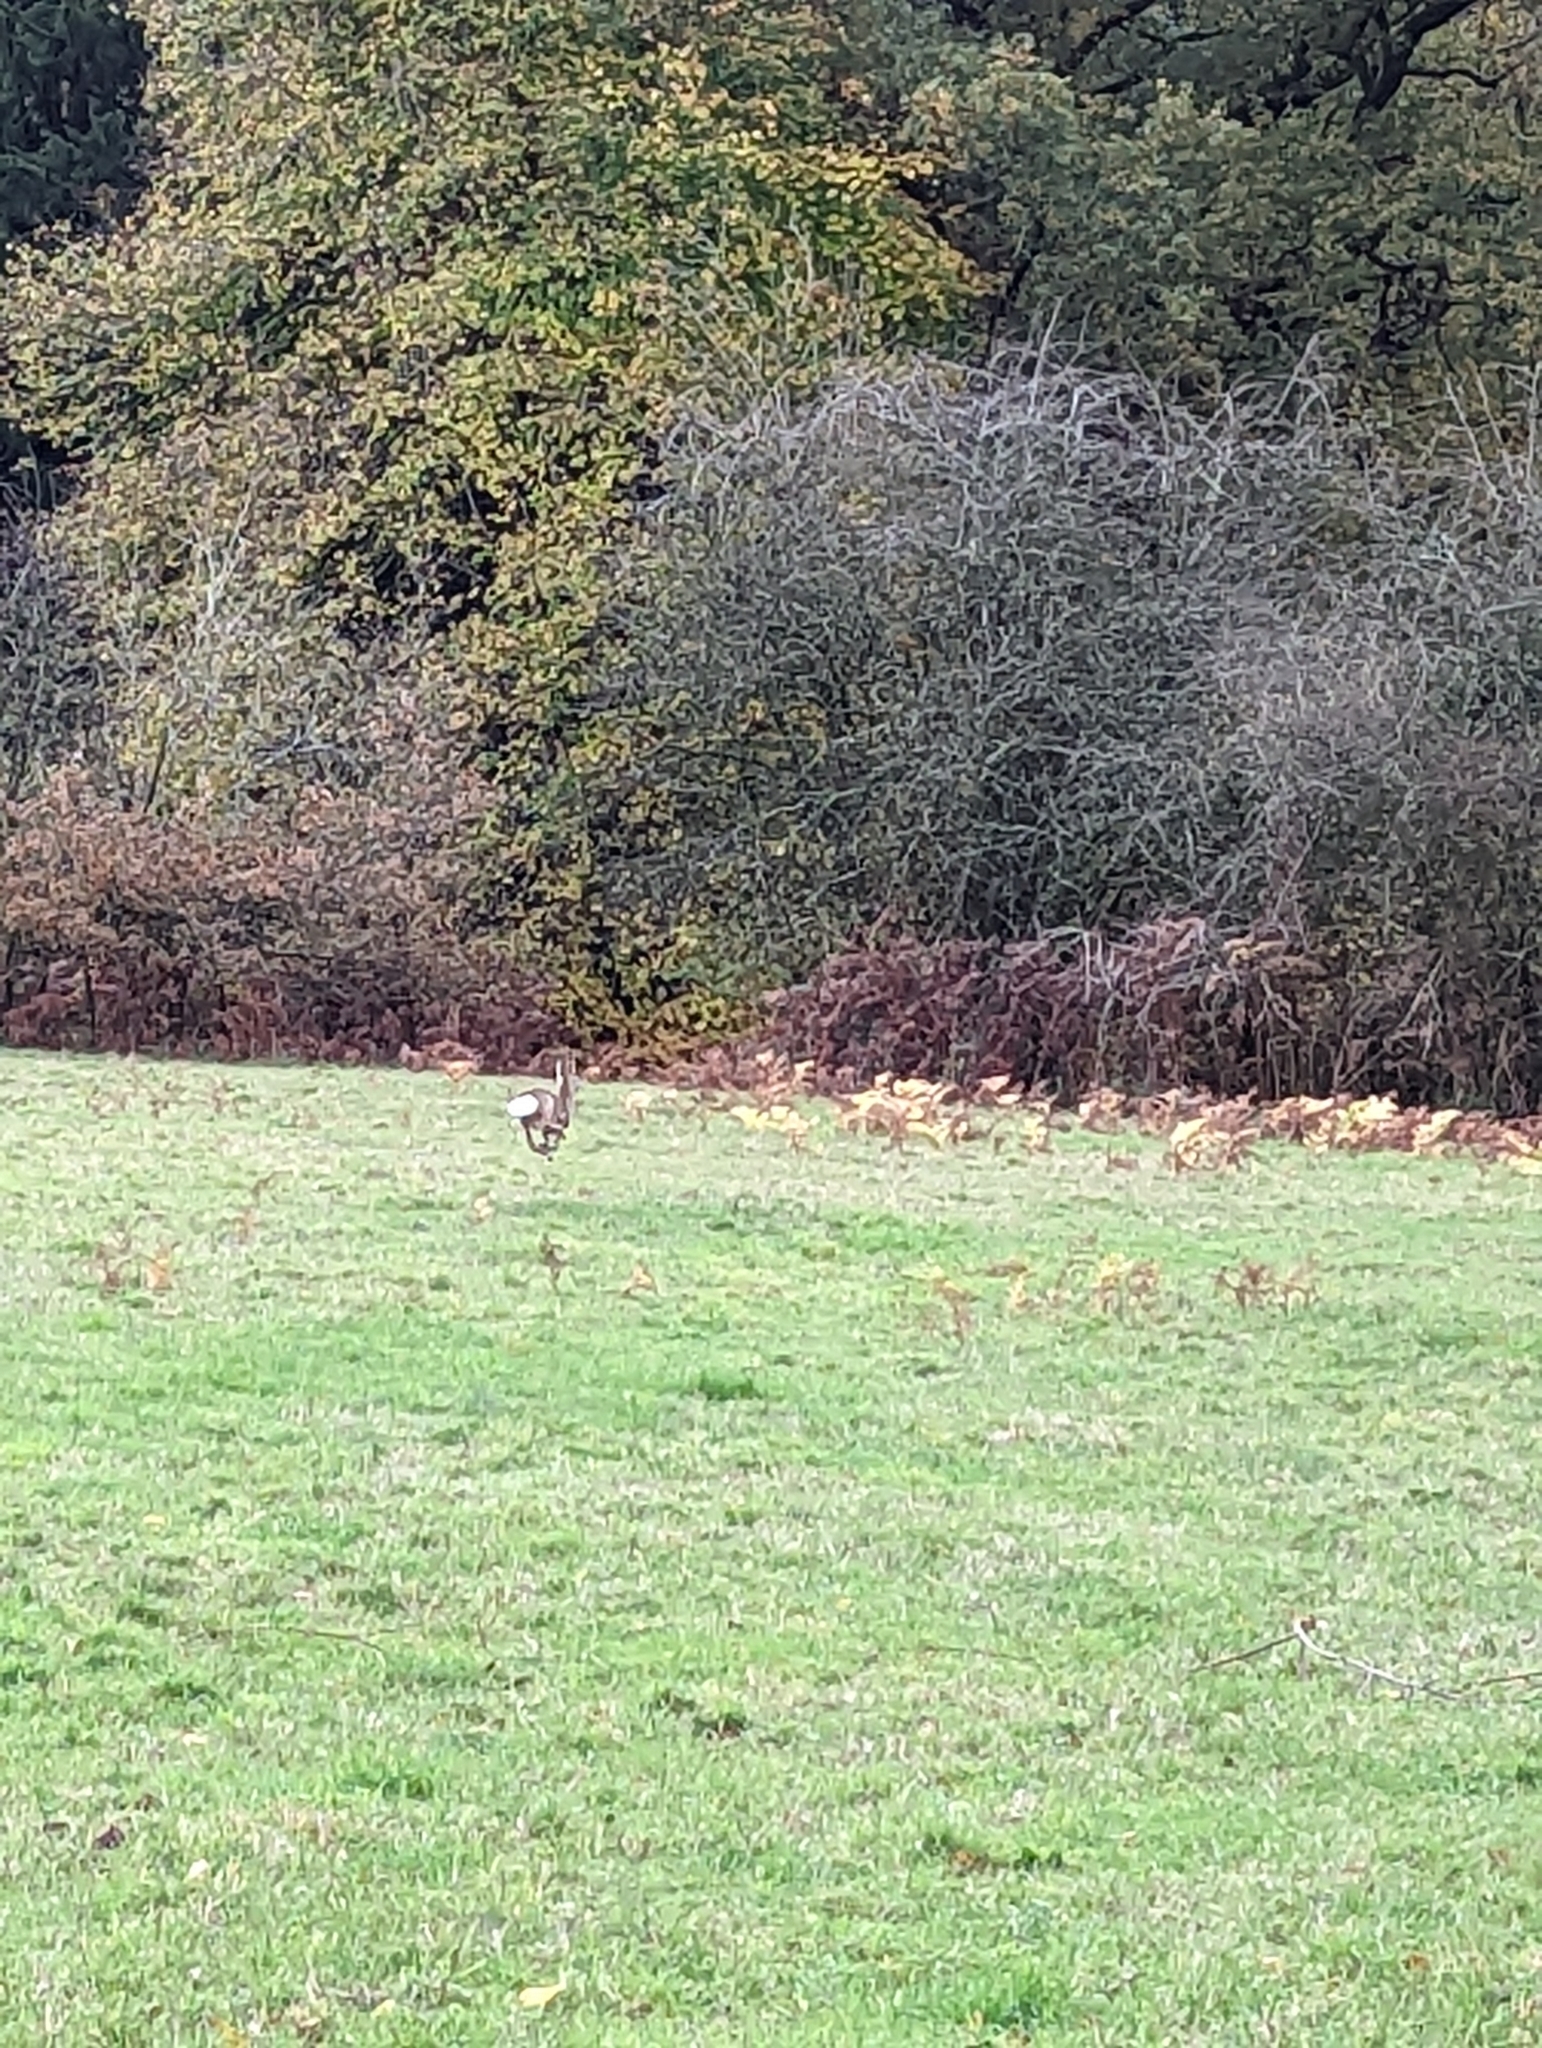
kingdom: Animalia
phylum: Chordata
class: Mammalia
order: Artiodactyla
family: Cervidae
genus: Capreolus
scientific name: Capreolus capreolus
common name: Western roe deer
